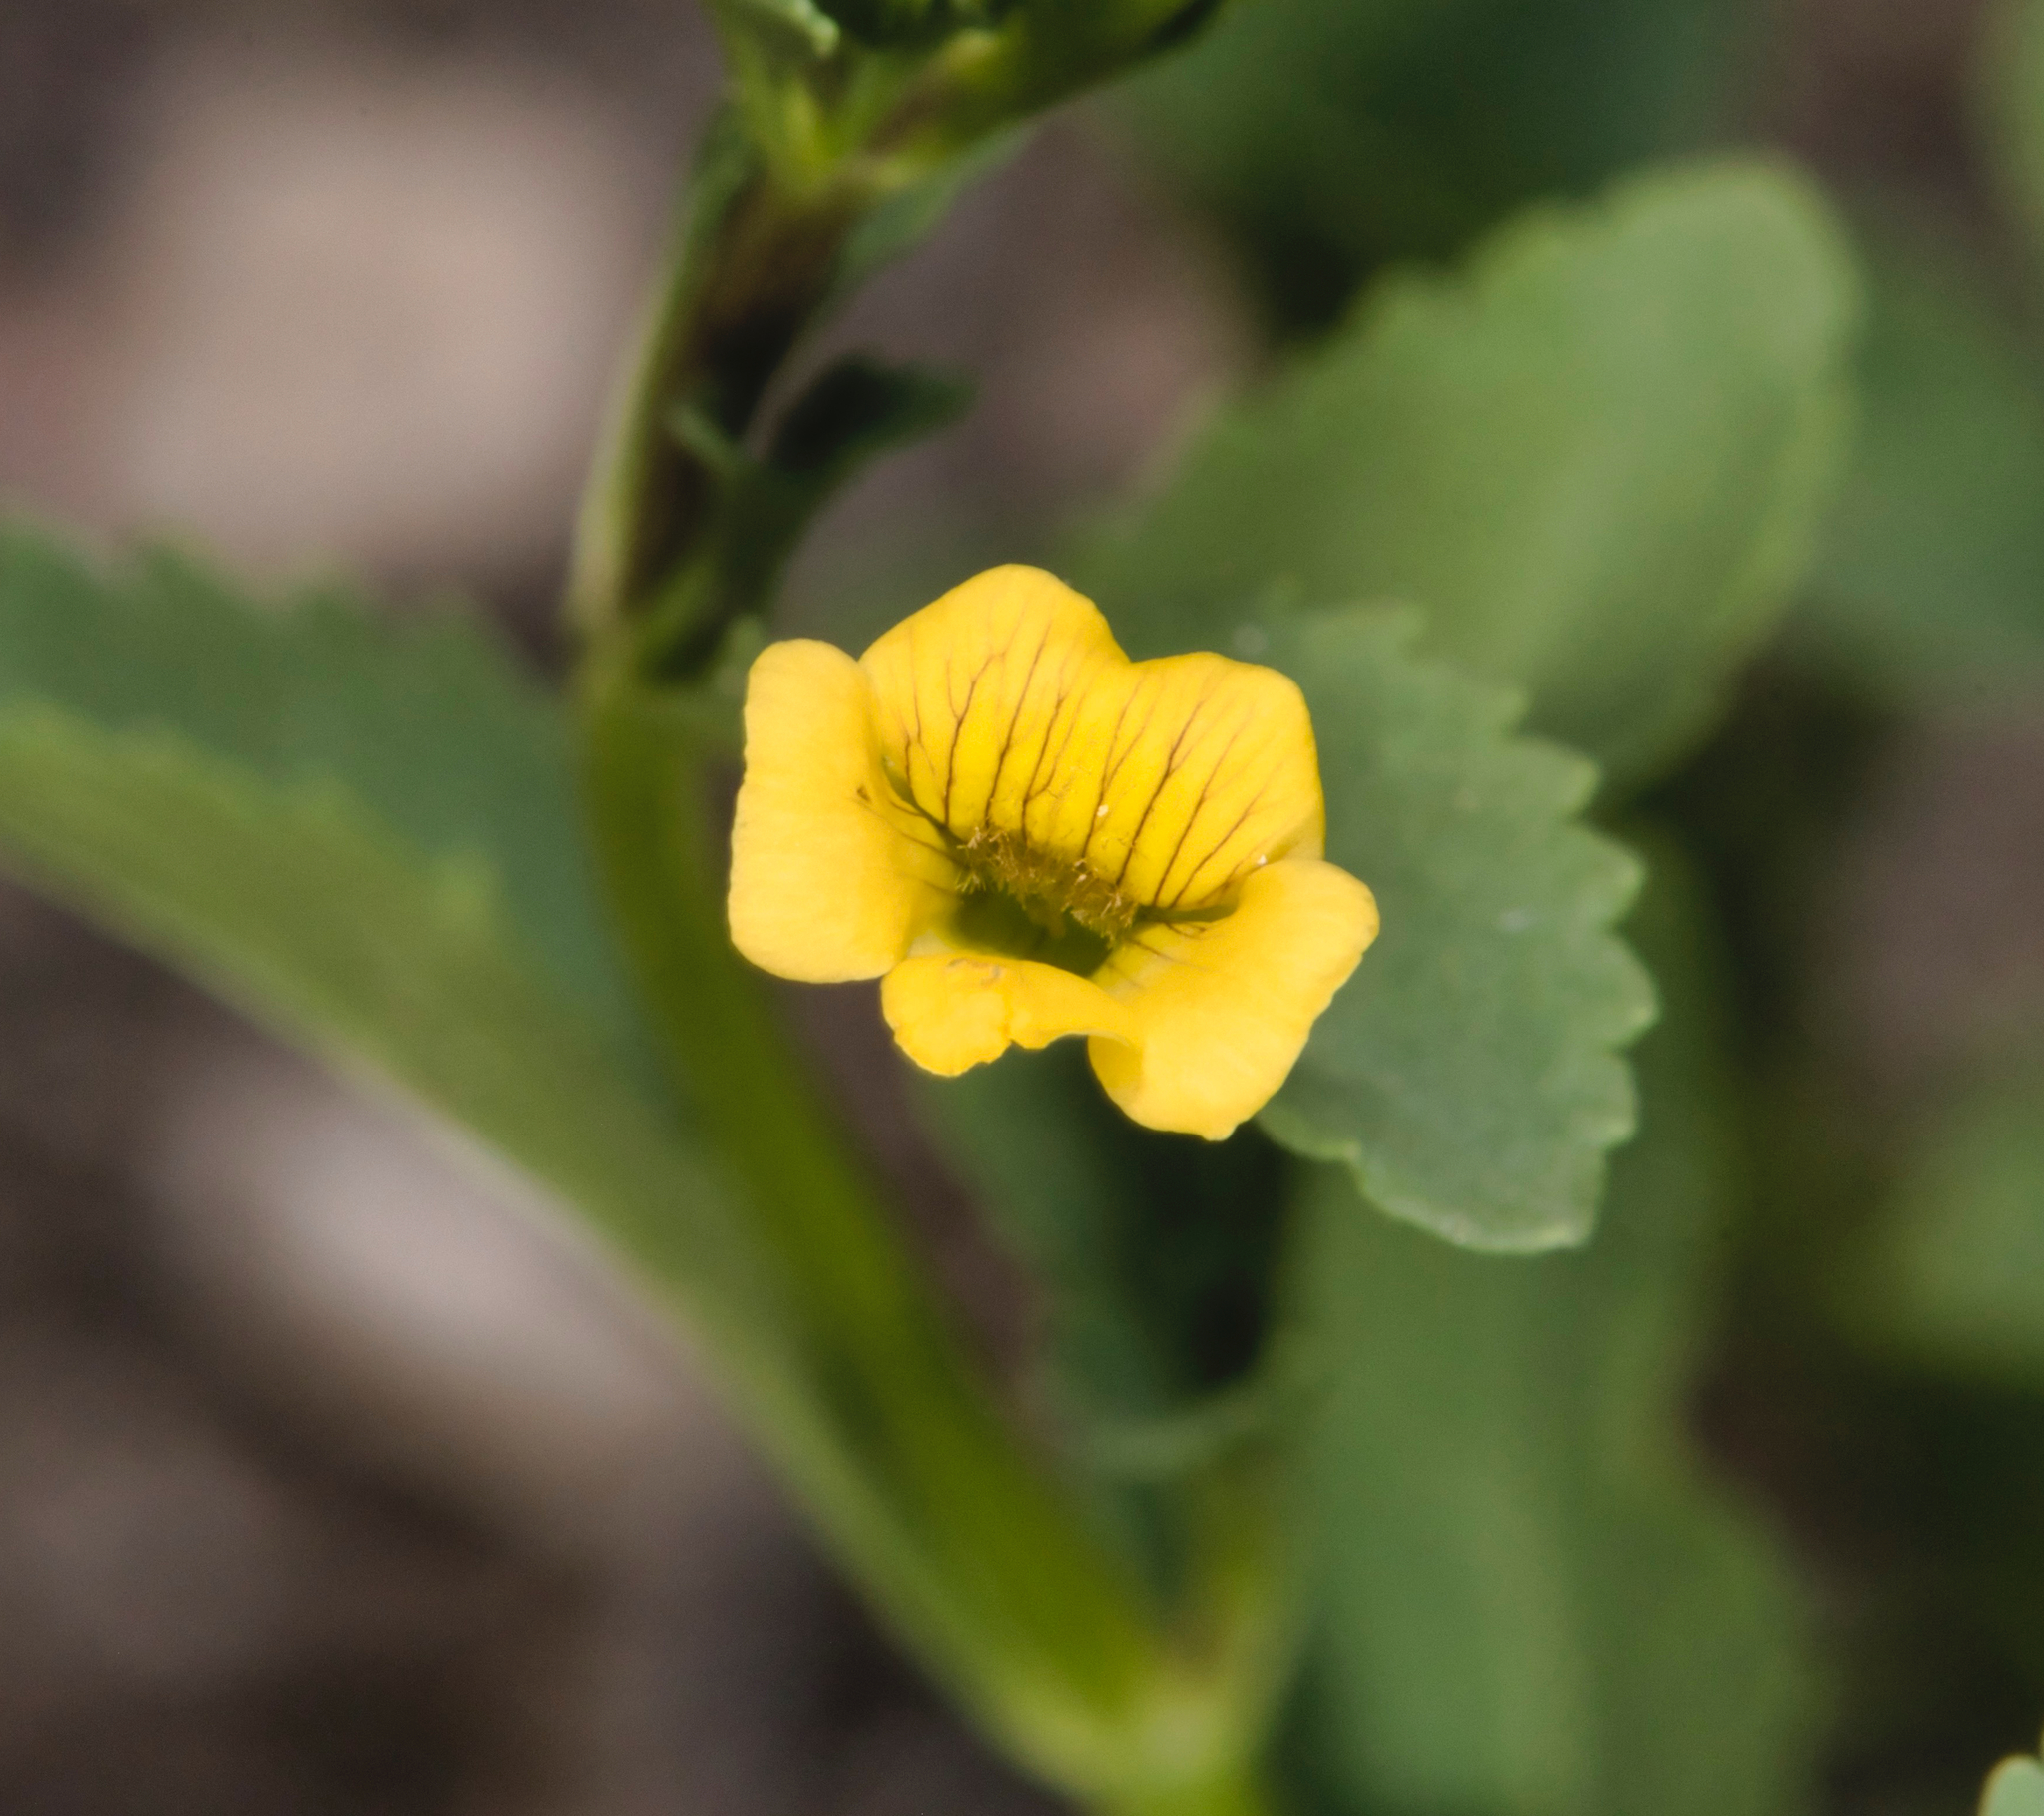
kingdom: Plantae
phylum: Tracheophyta
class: Magnoliopsida
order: Lamiales
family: Plantaginaceae
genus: Mecardonia
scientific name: Mecardonia procumbens
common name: Baby jump-up
